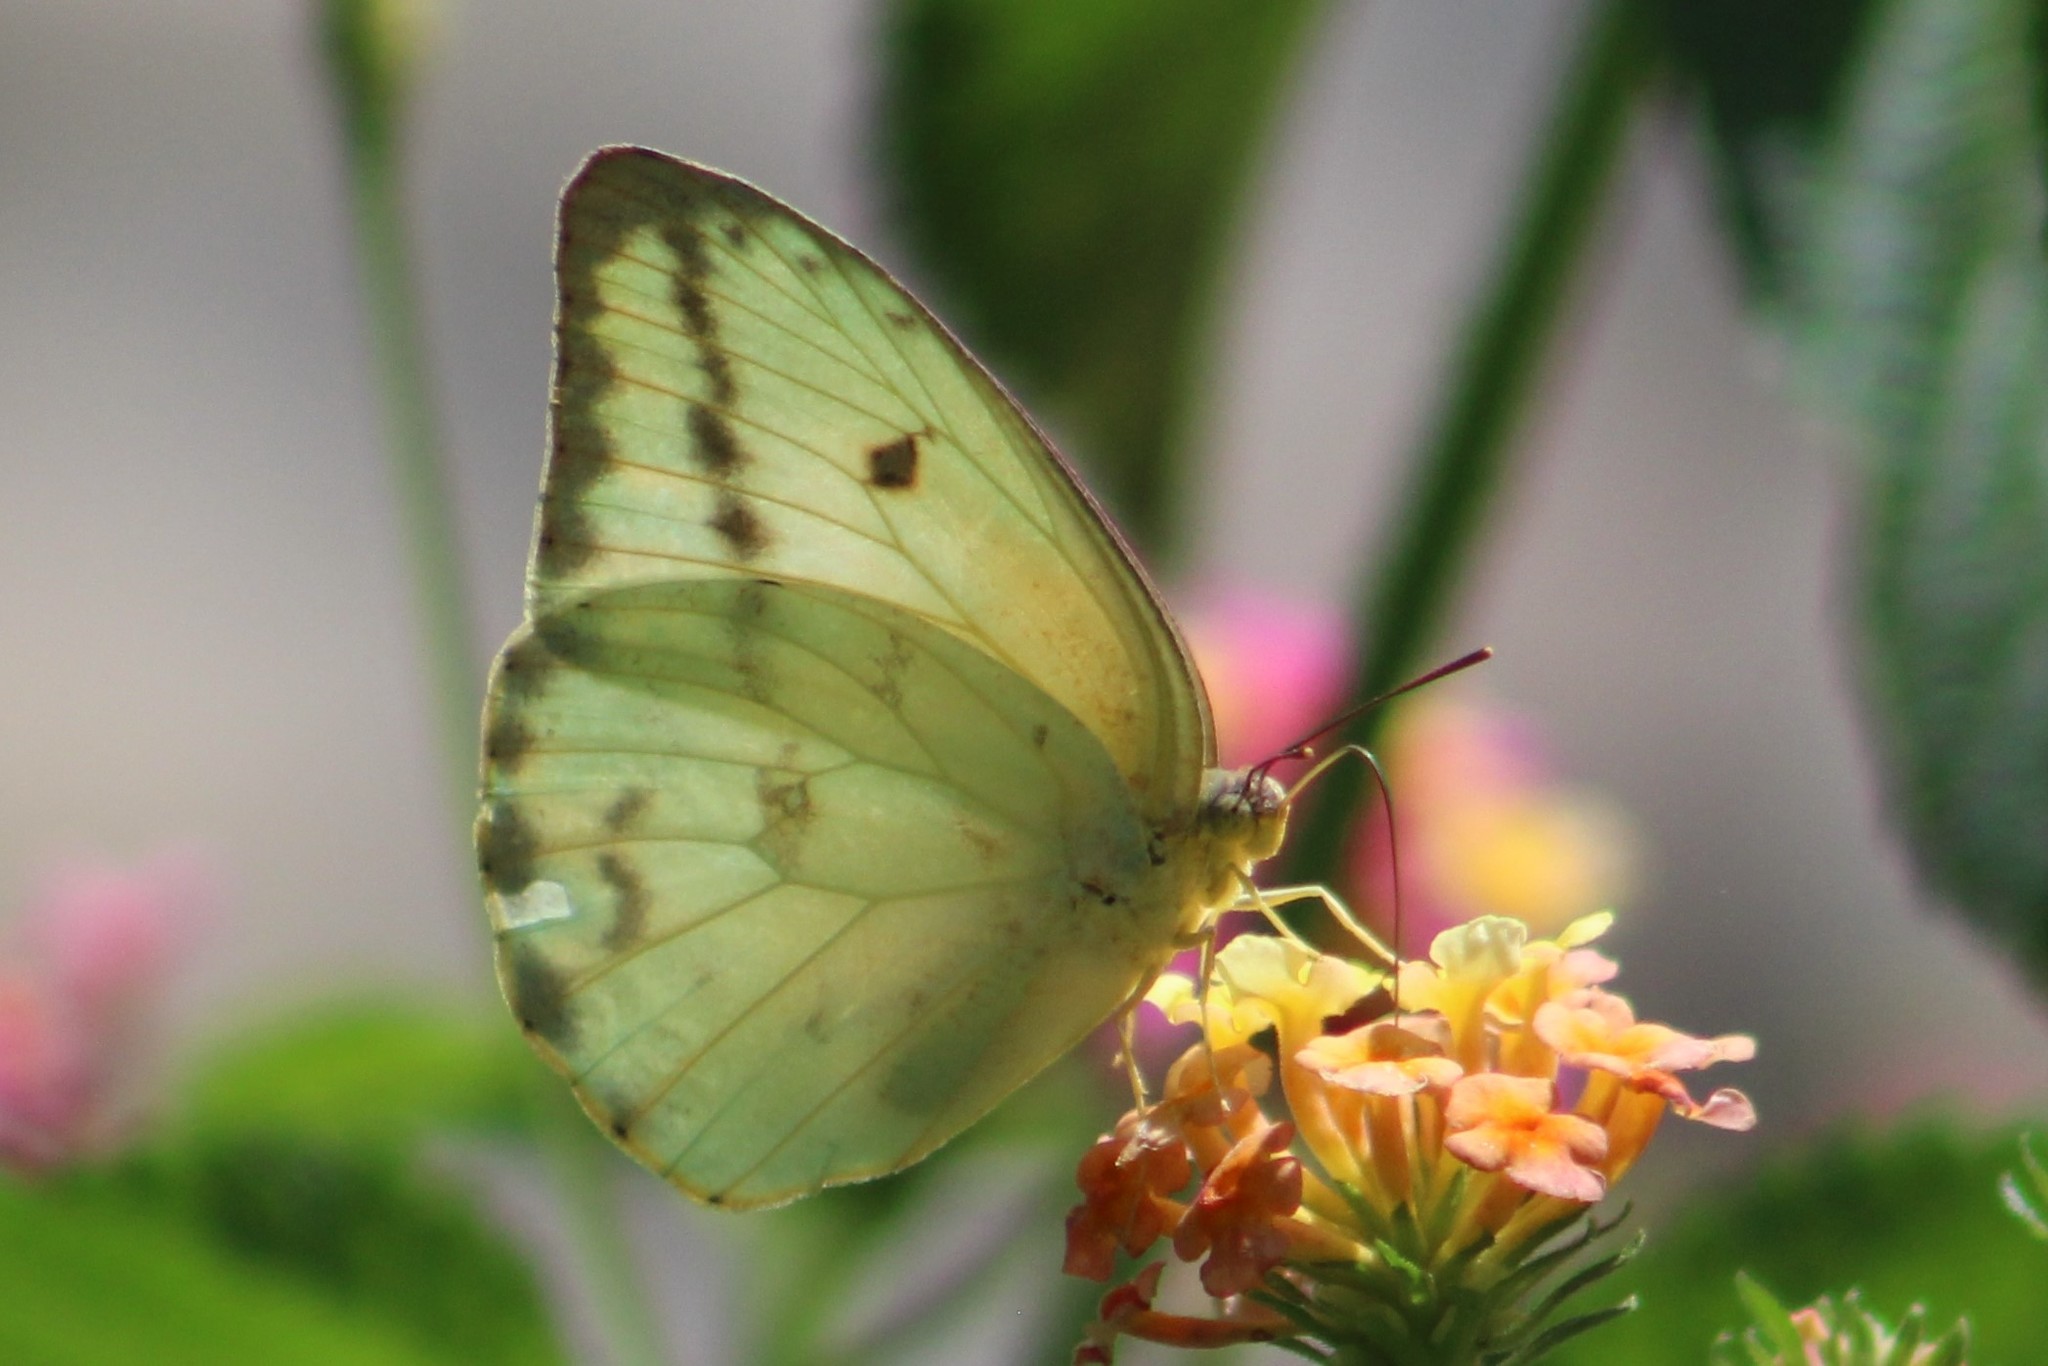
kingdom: Animalia
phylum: Arthropoda
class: Insecta
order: Lepidoptera
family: Pieridae
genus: Phoebis
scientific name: Phoebis agarithe
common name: Large orange sulphur
